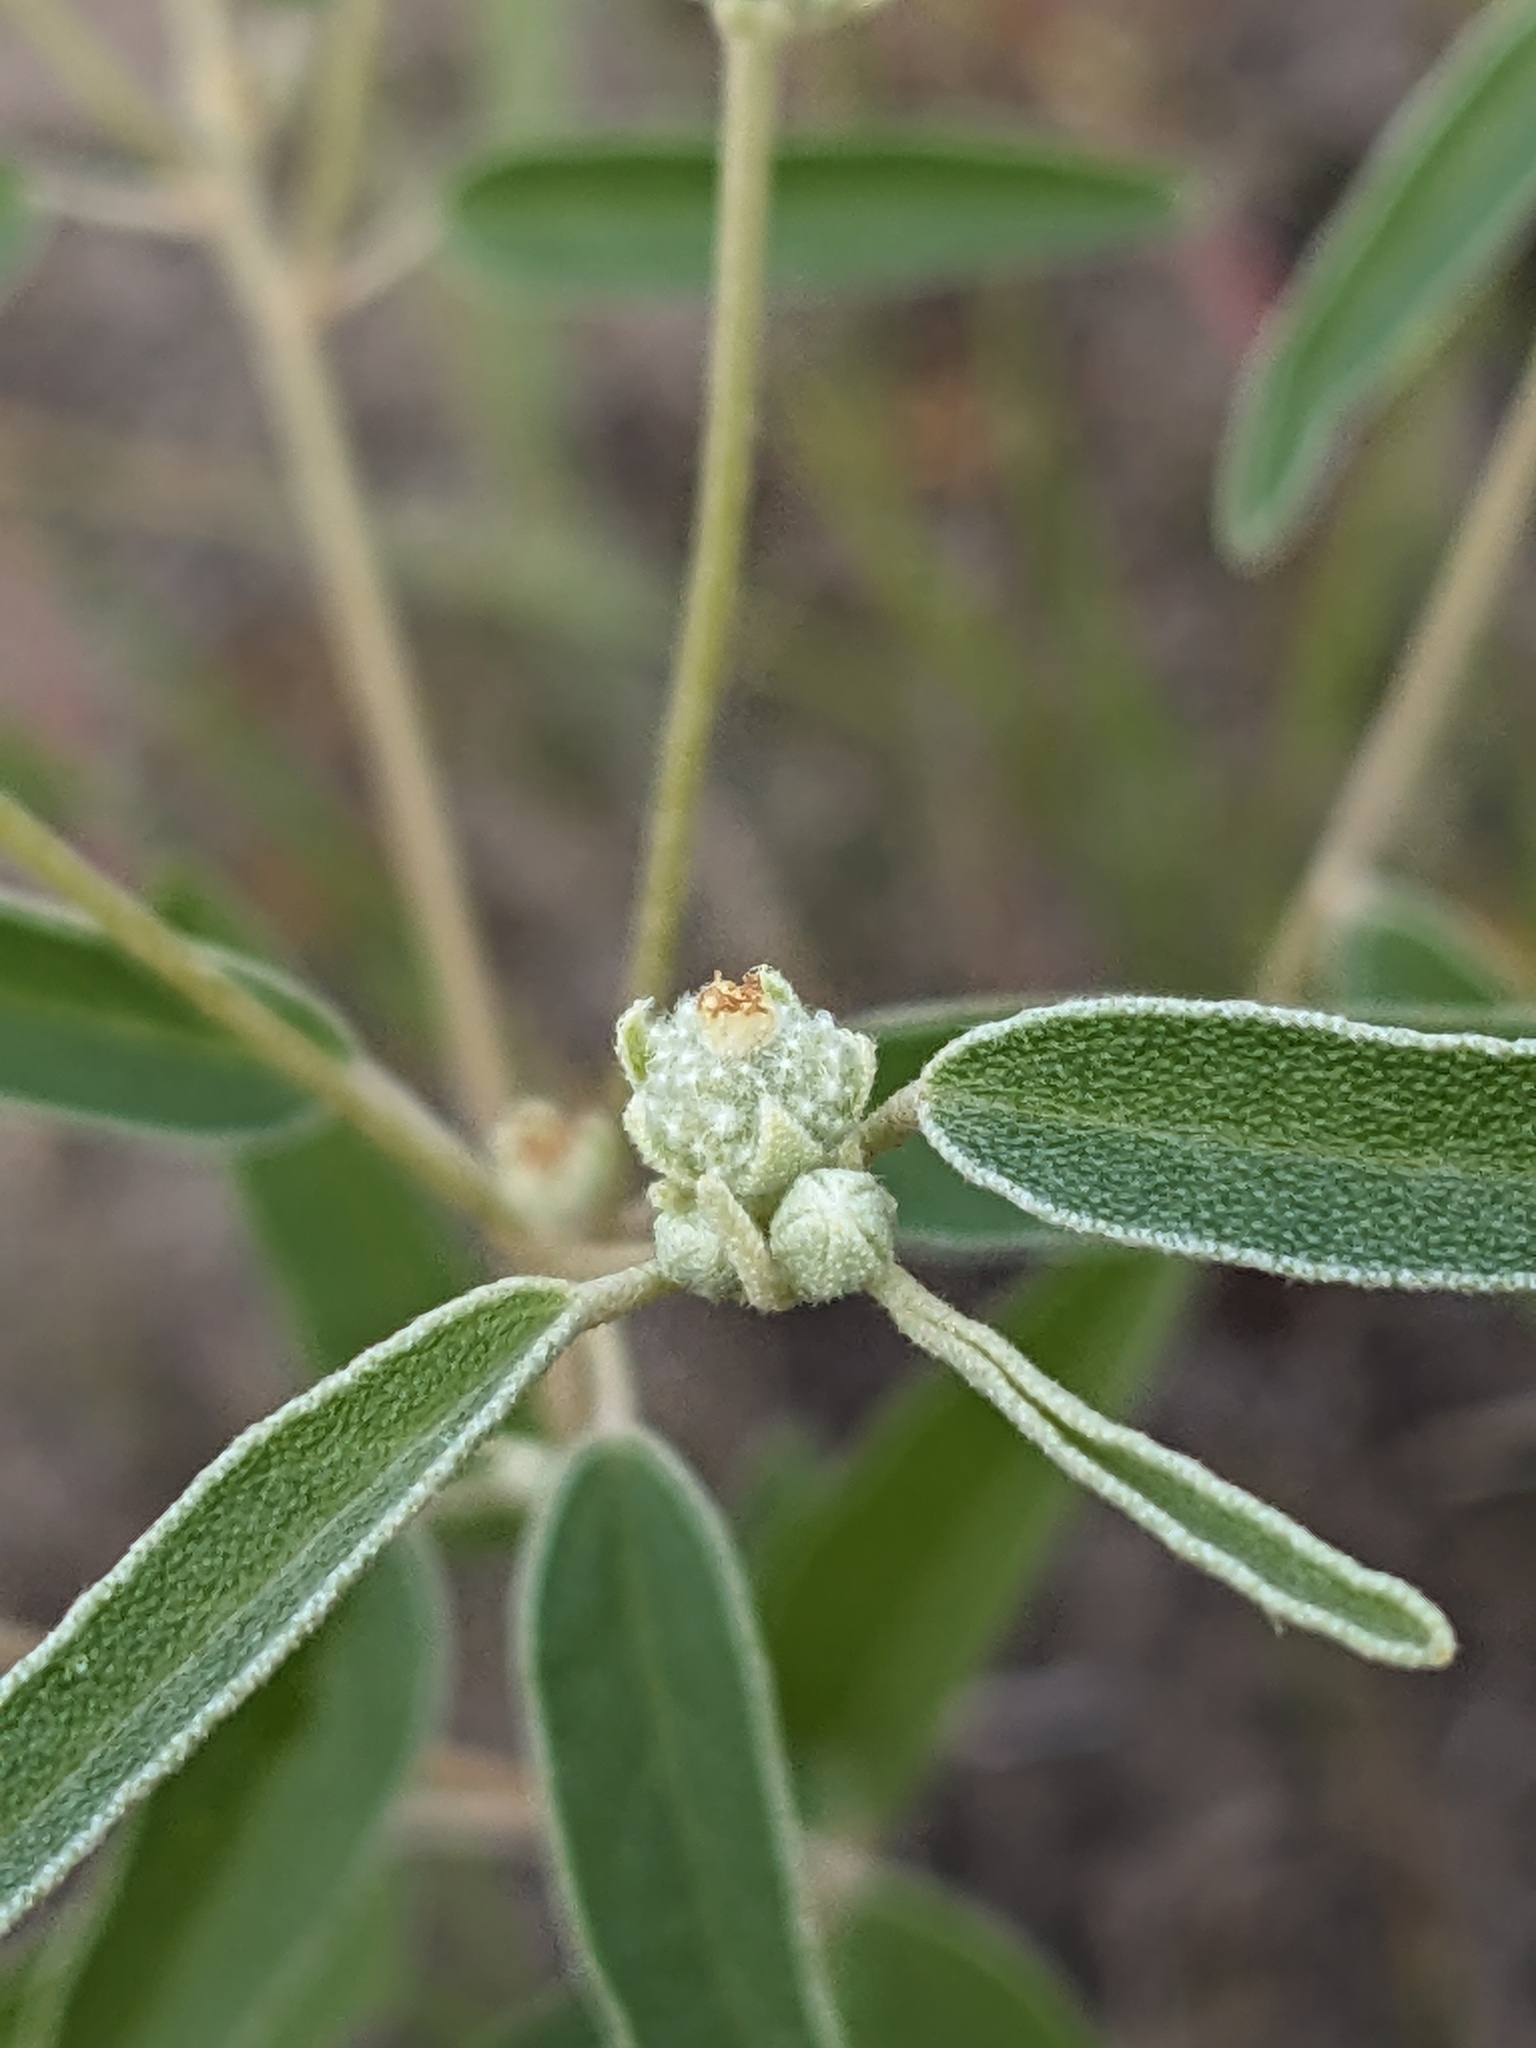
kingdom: Plantae
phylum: Tracheophyta
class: Magnoliopsida
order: Malpighiales
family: Euphorbiaceae
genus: Croton
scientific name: Croton texensis
